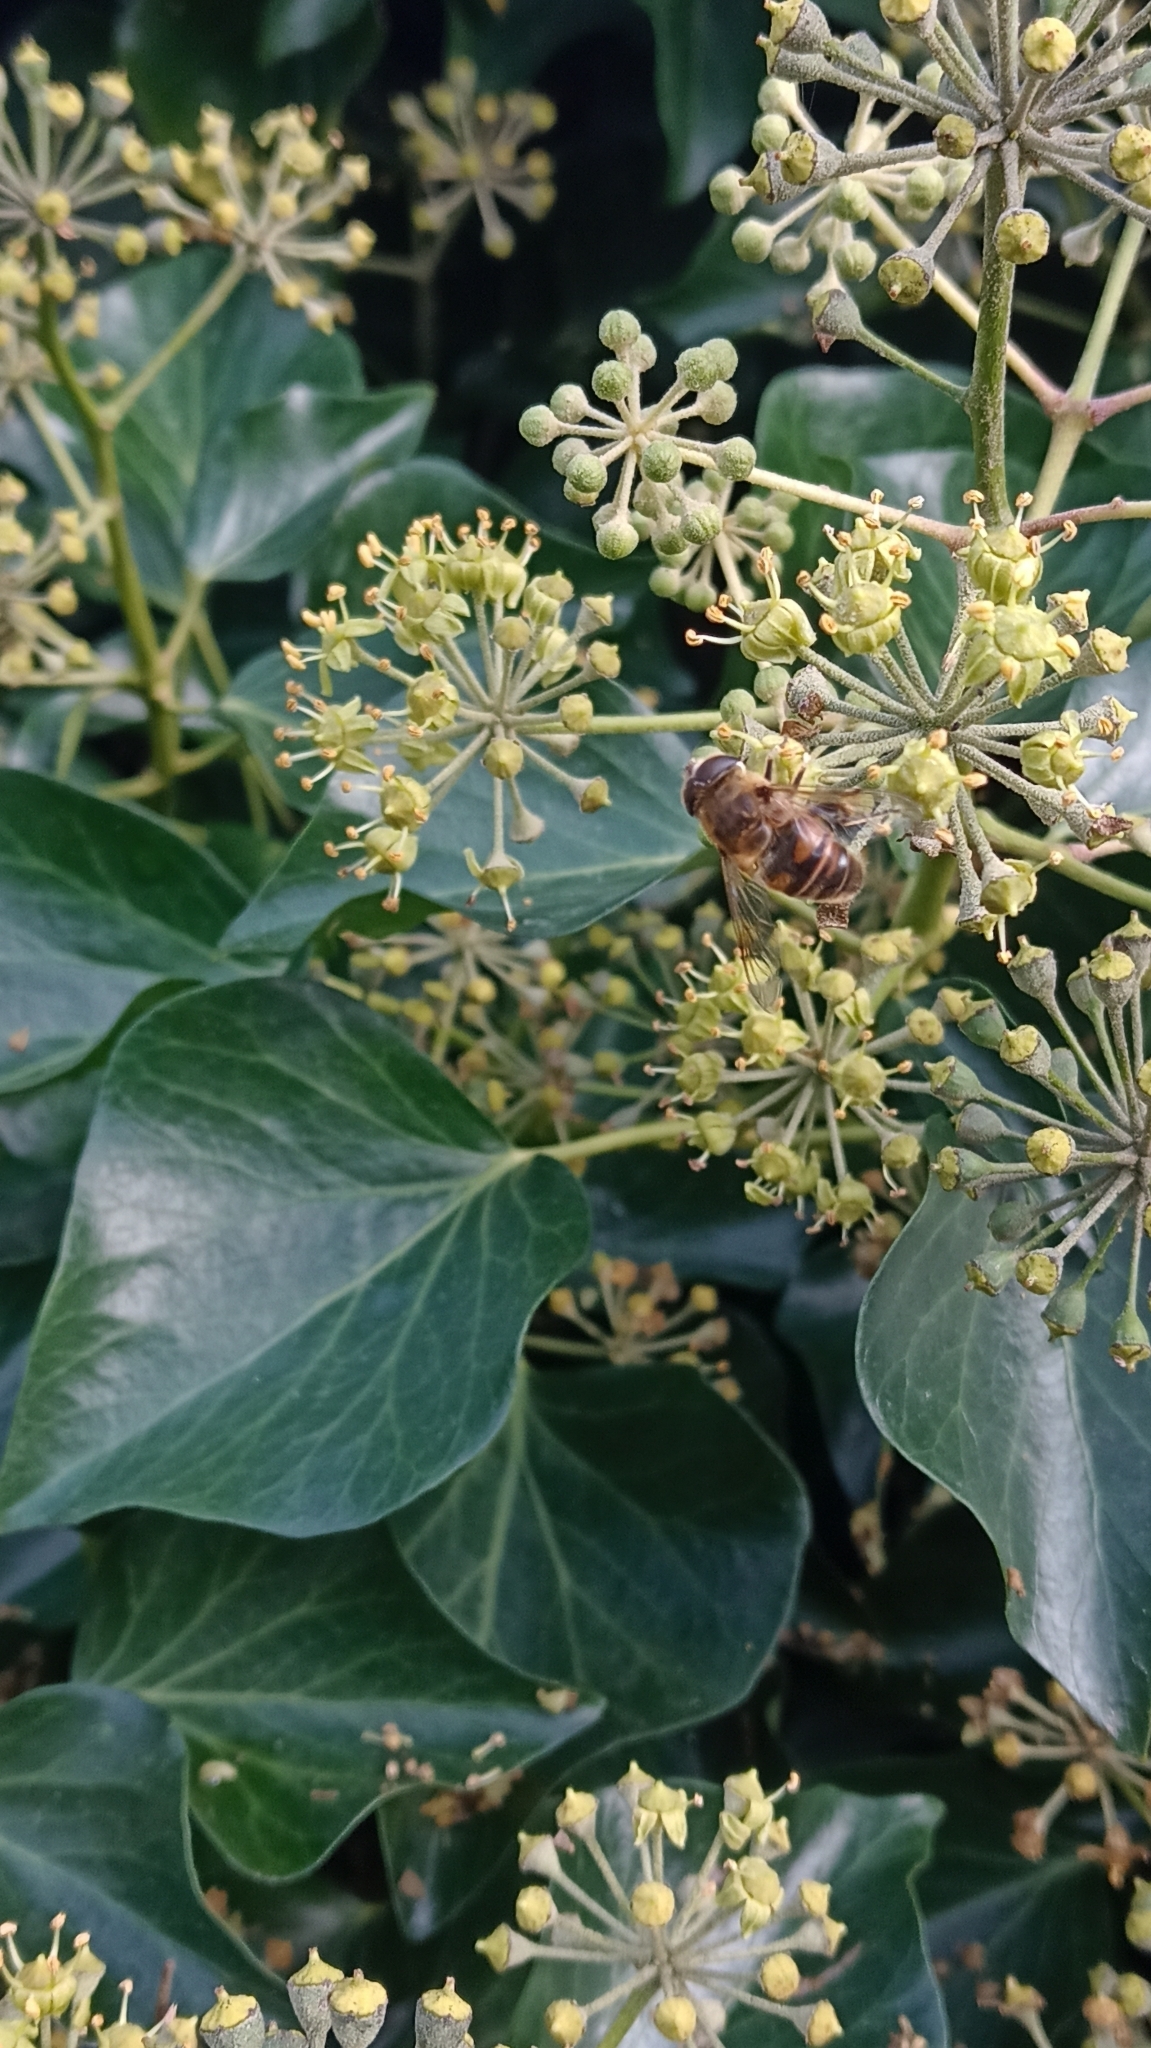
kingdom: Animalia
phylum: Arthropoda
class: Insecta
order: Diptera
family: Syrphidae
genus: Eristalis
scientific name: Eristalis tenax
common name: Drone fly
